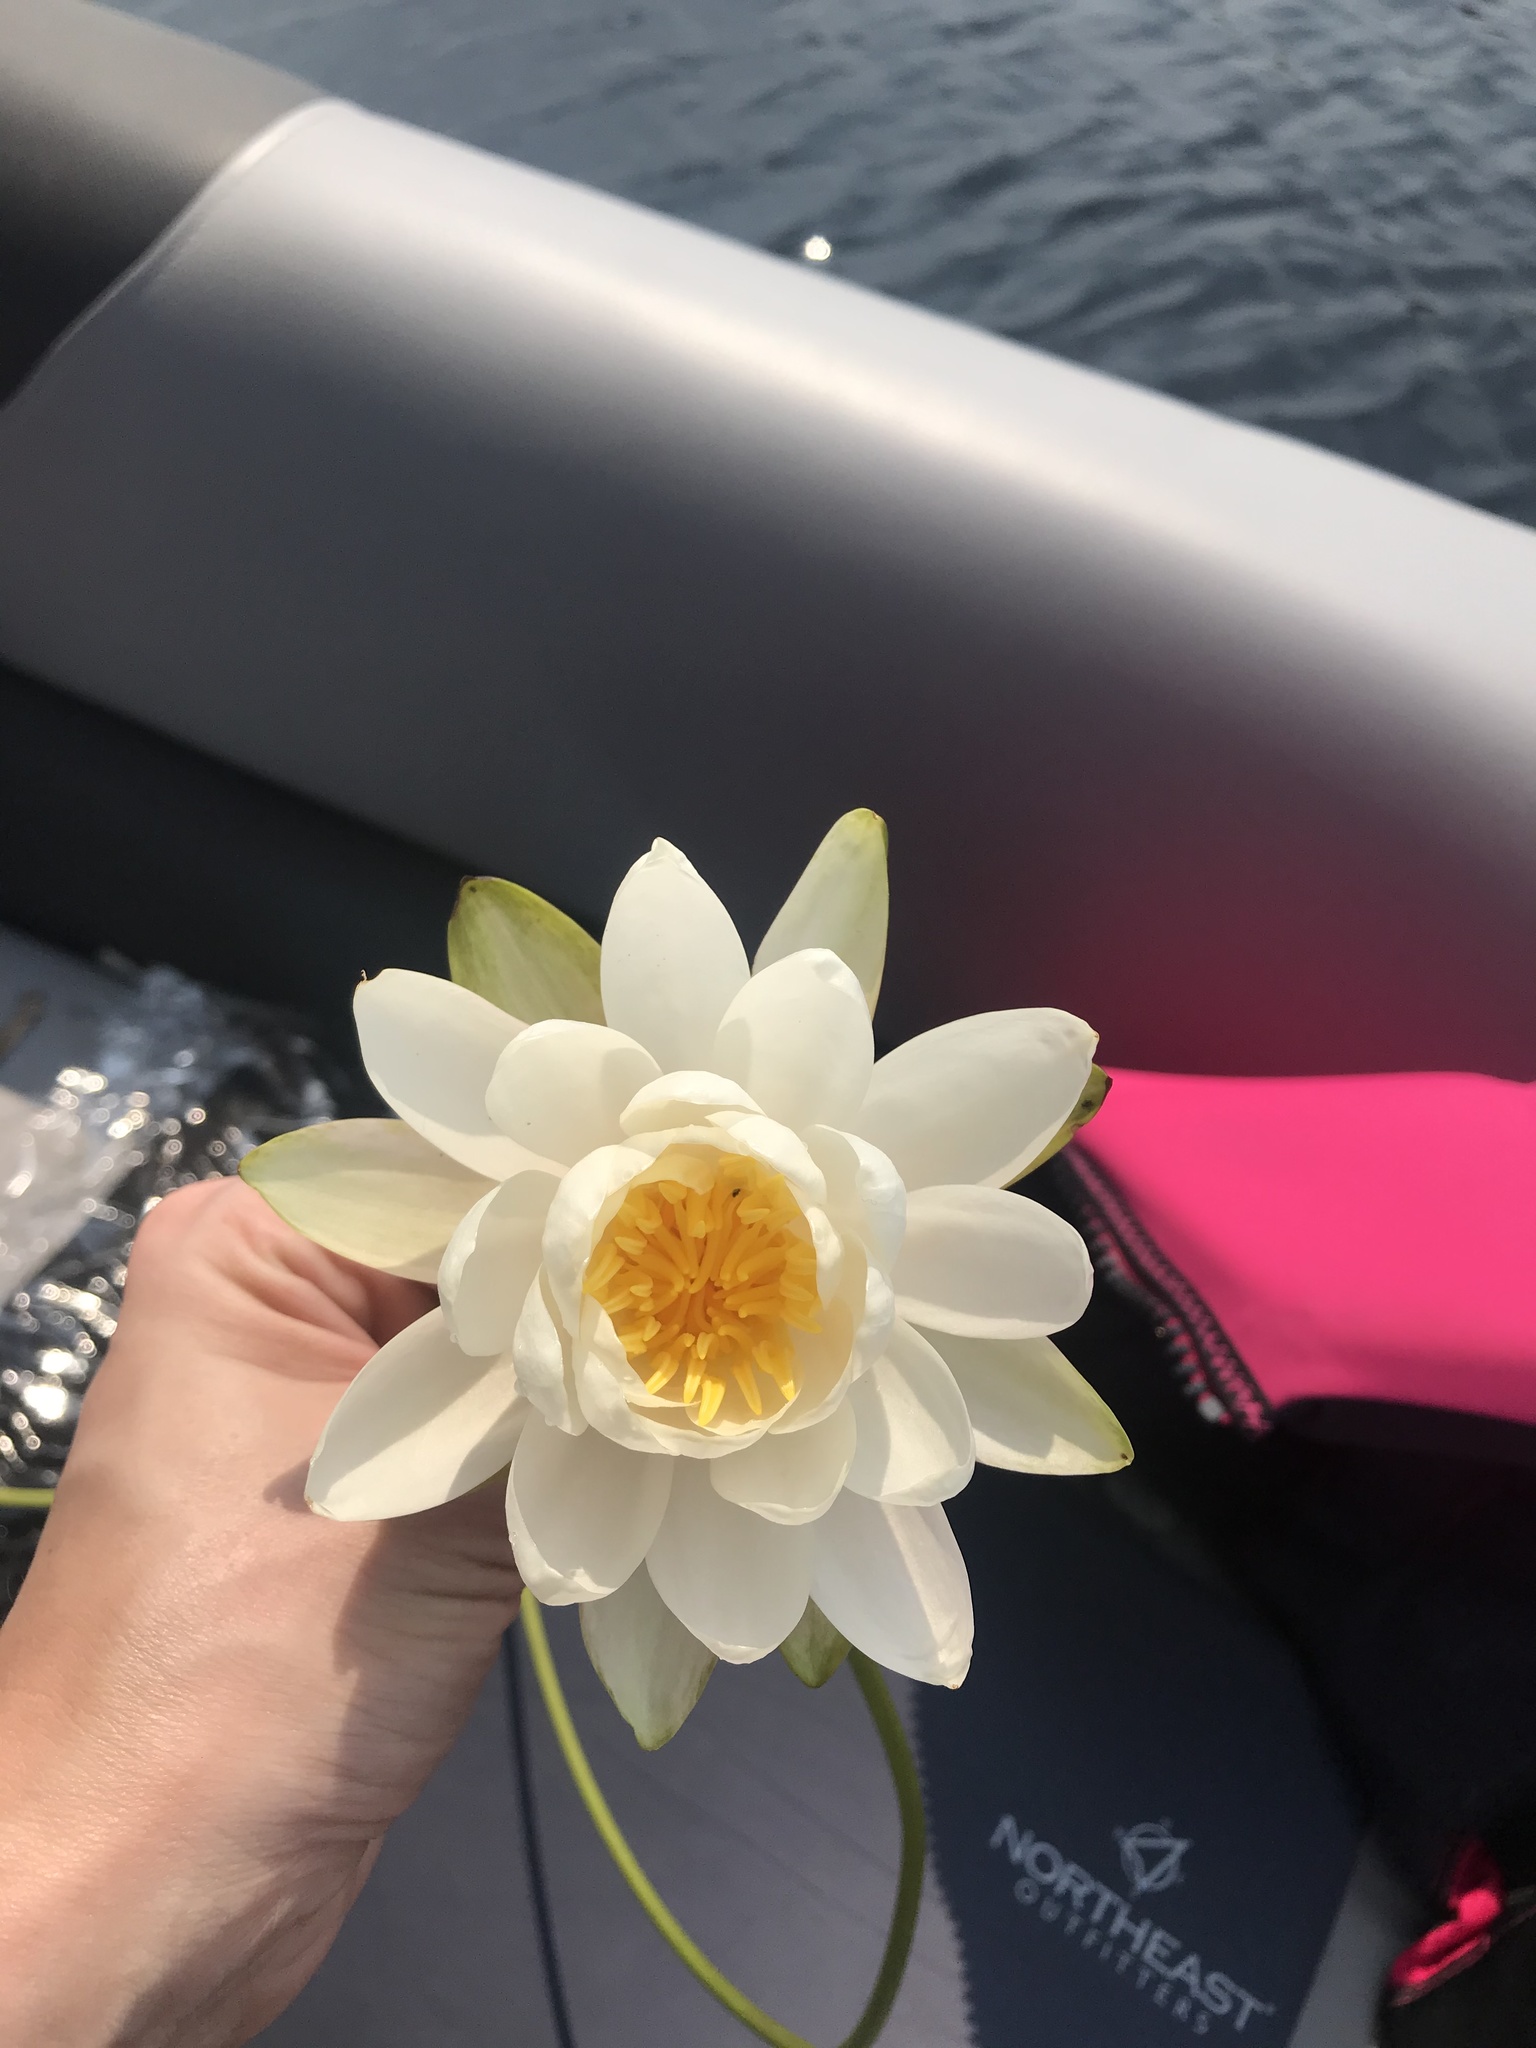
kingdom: Plantae
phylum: Tracheophyta
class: Magnoliopsida
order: Nymphaeales
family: Nymphaeaceae
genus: Nymphaea
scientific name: Nymphaea odorata
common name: Fragrant water-lily
